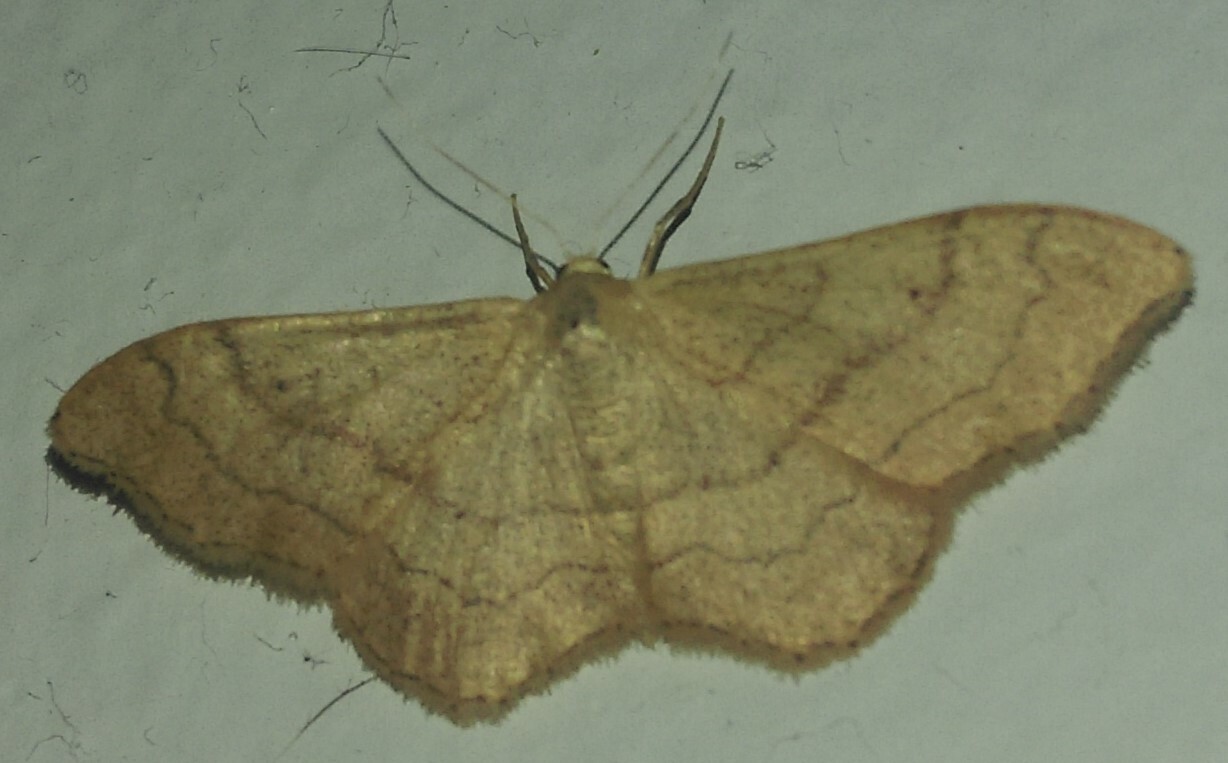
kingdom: Animalia
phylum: Arthropoda
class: Insecta
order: Lepidoptera
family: Geometridae
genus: Idaea
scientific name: Idaea aversata
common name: Riband wave
